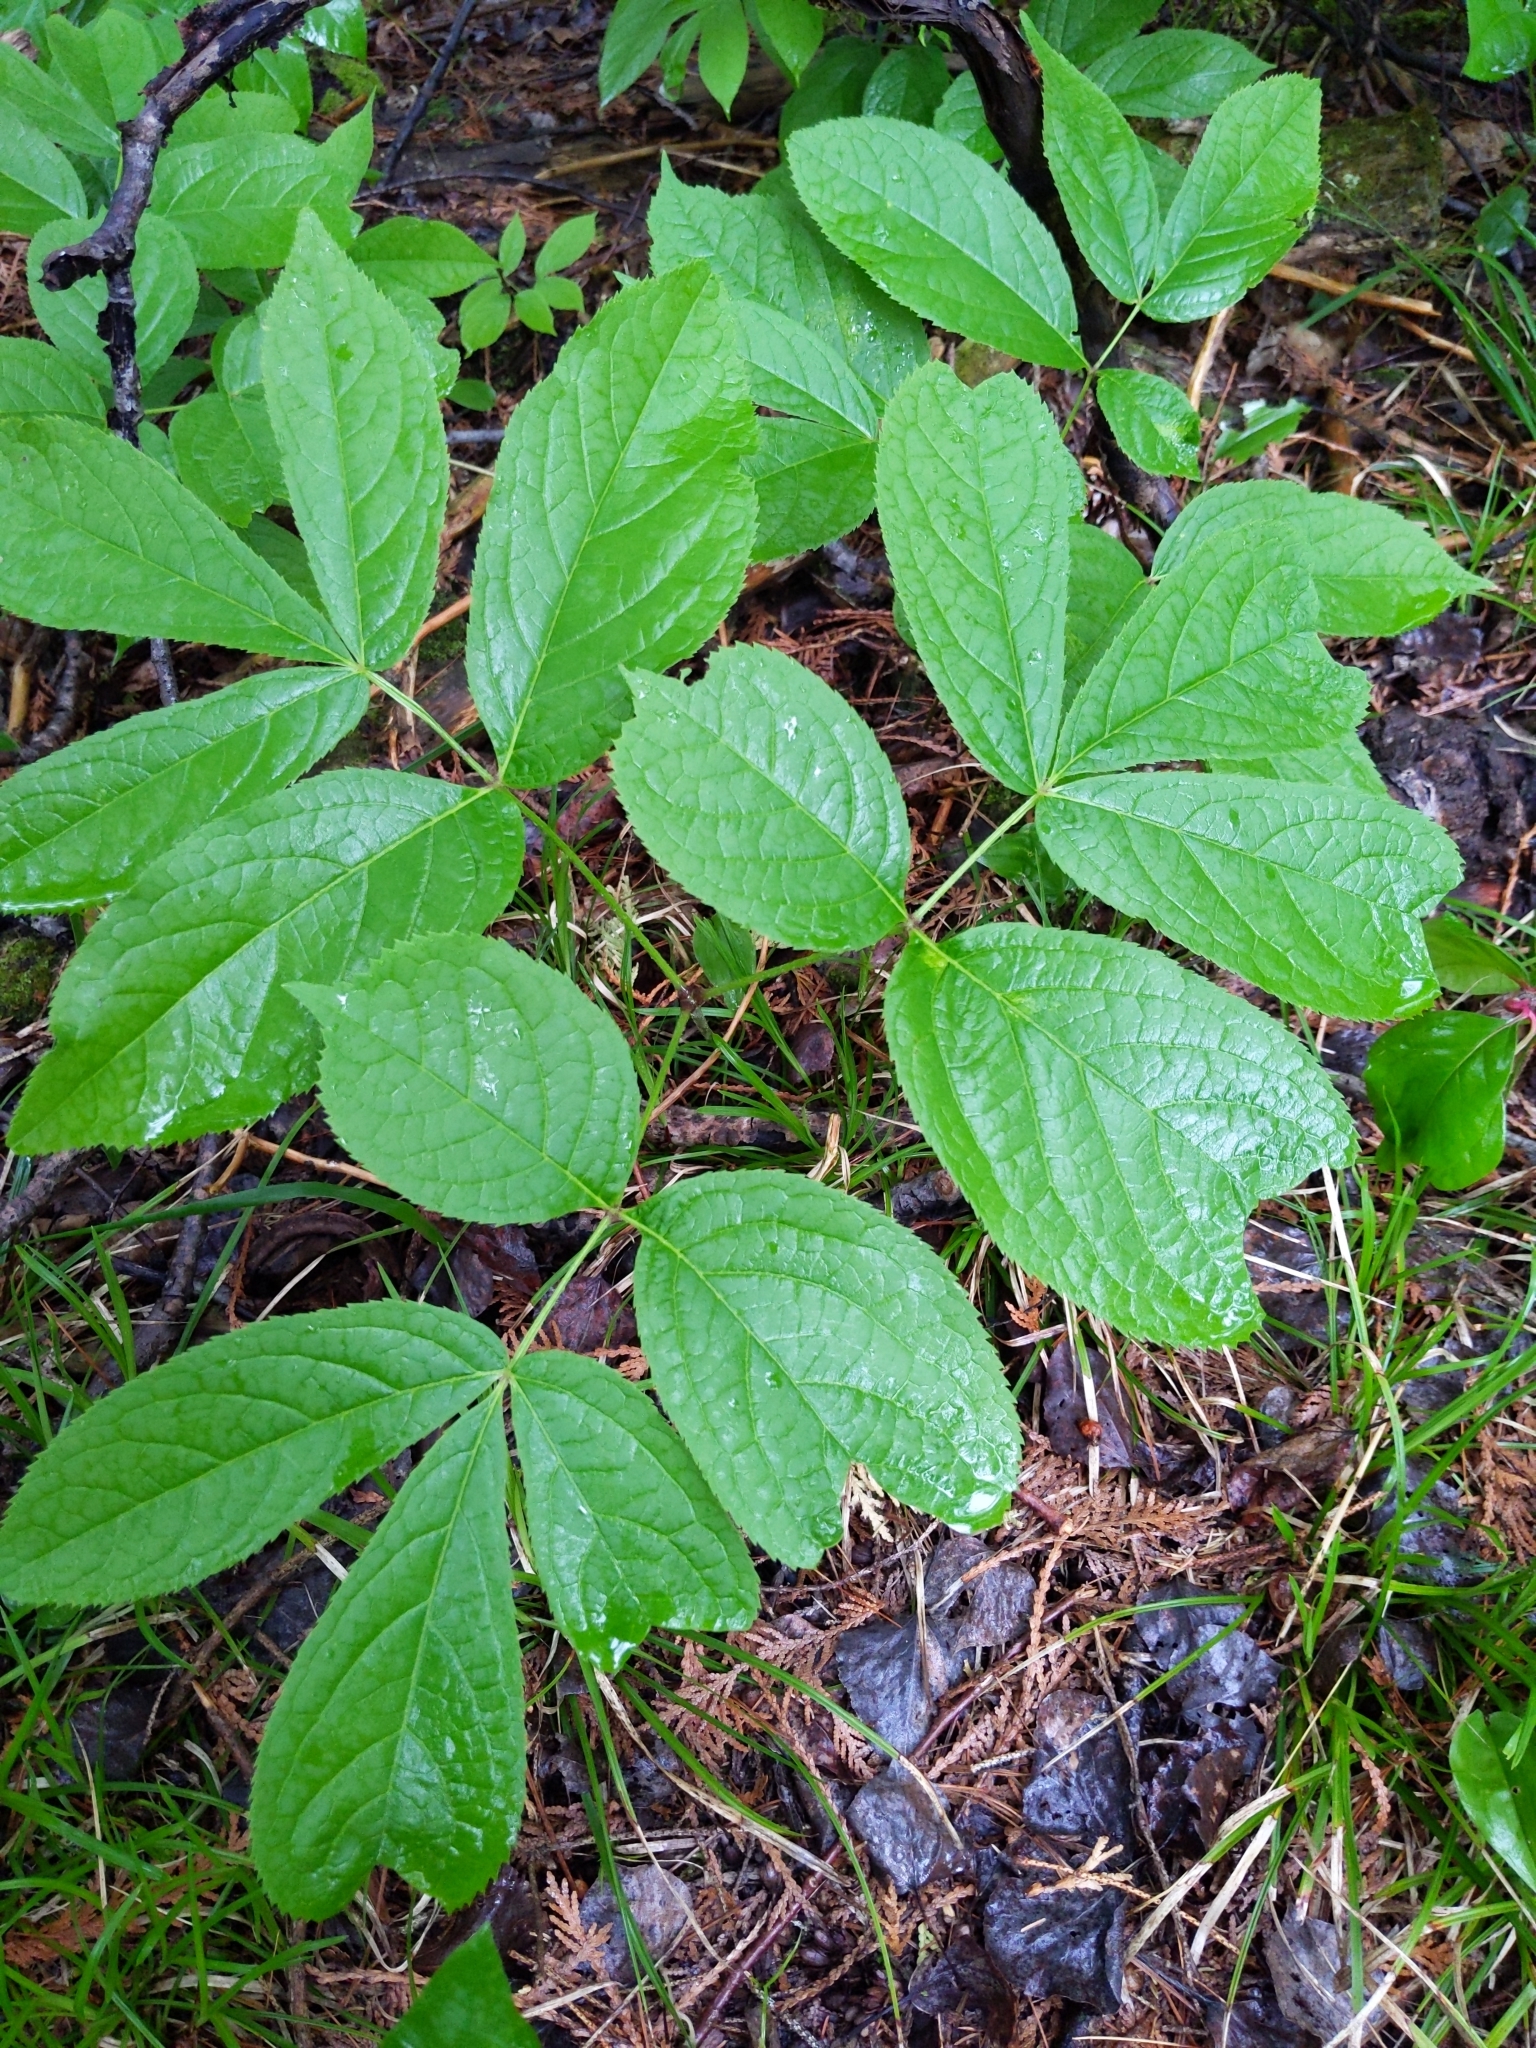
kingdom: Plantae
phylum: Tracheophyta
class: Magnoliopsida
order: Apiales
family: Araliaceae
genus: Aralia
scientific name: Aralia nudicaulis
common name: Wild sarsaparilla
